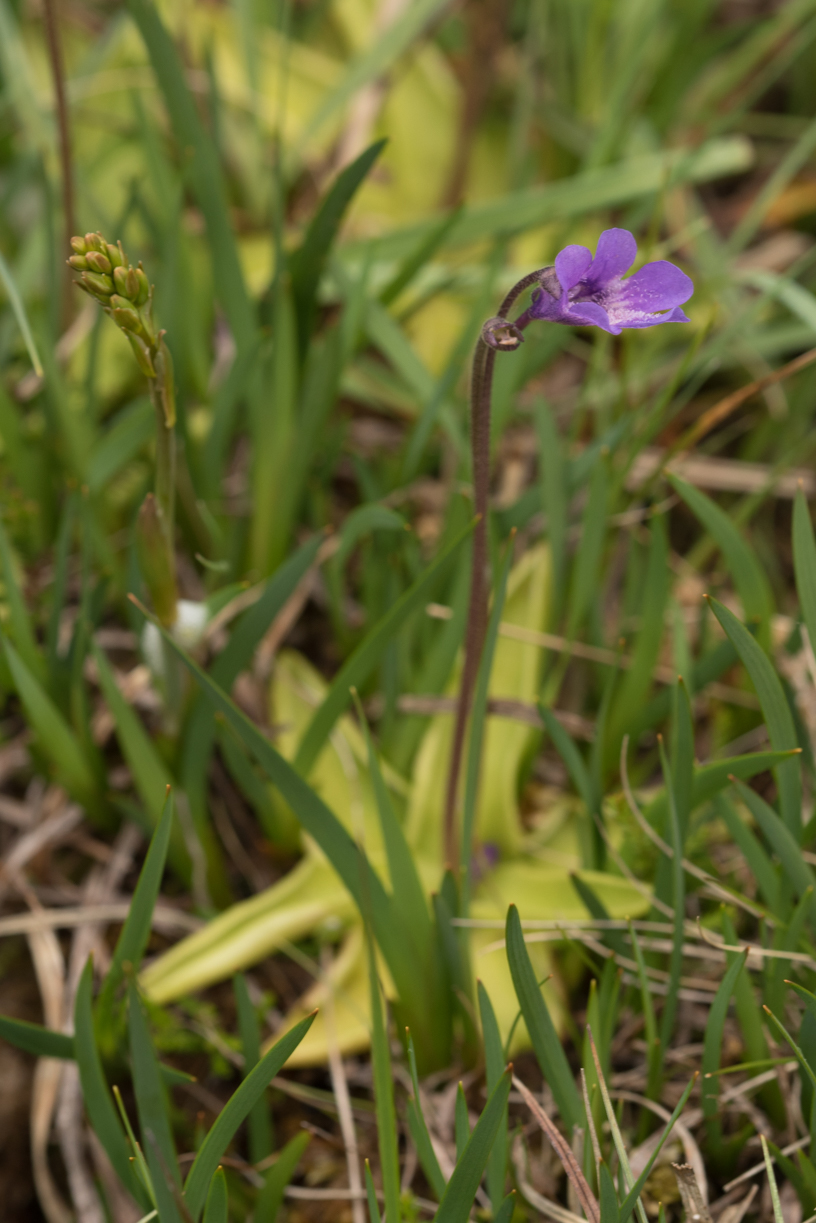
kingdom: Plantae
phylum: Tracheophyta
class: Magnoliopsida
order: Lamiales
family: Lentibulariaceae
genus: Pinguicula
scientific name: Pinguicula vulgaris
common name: Common butterwort
